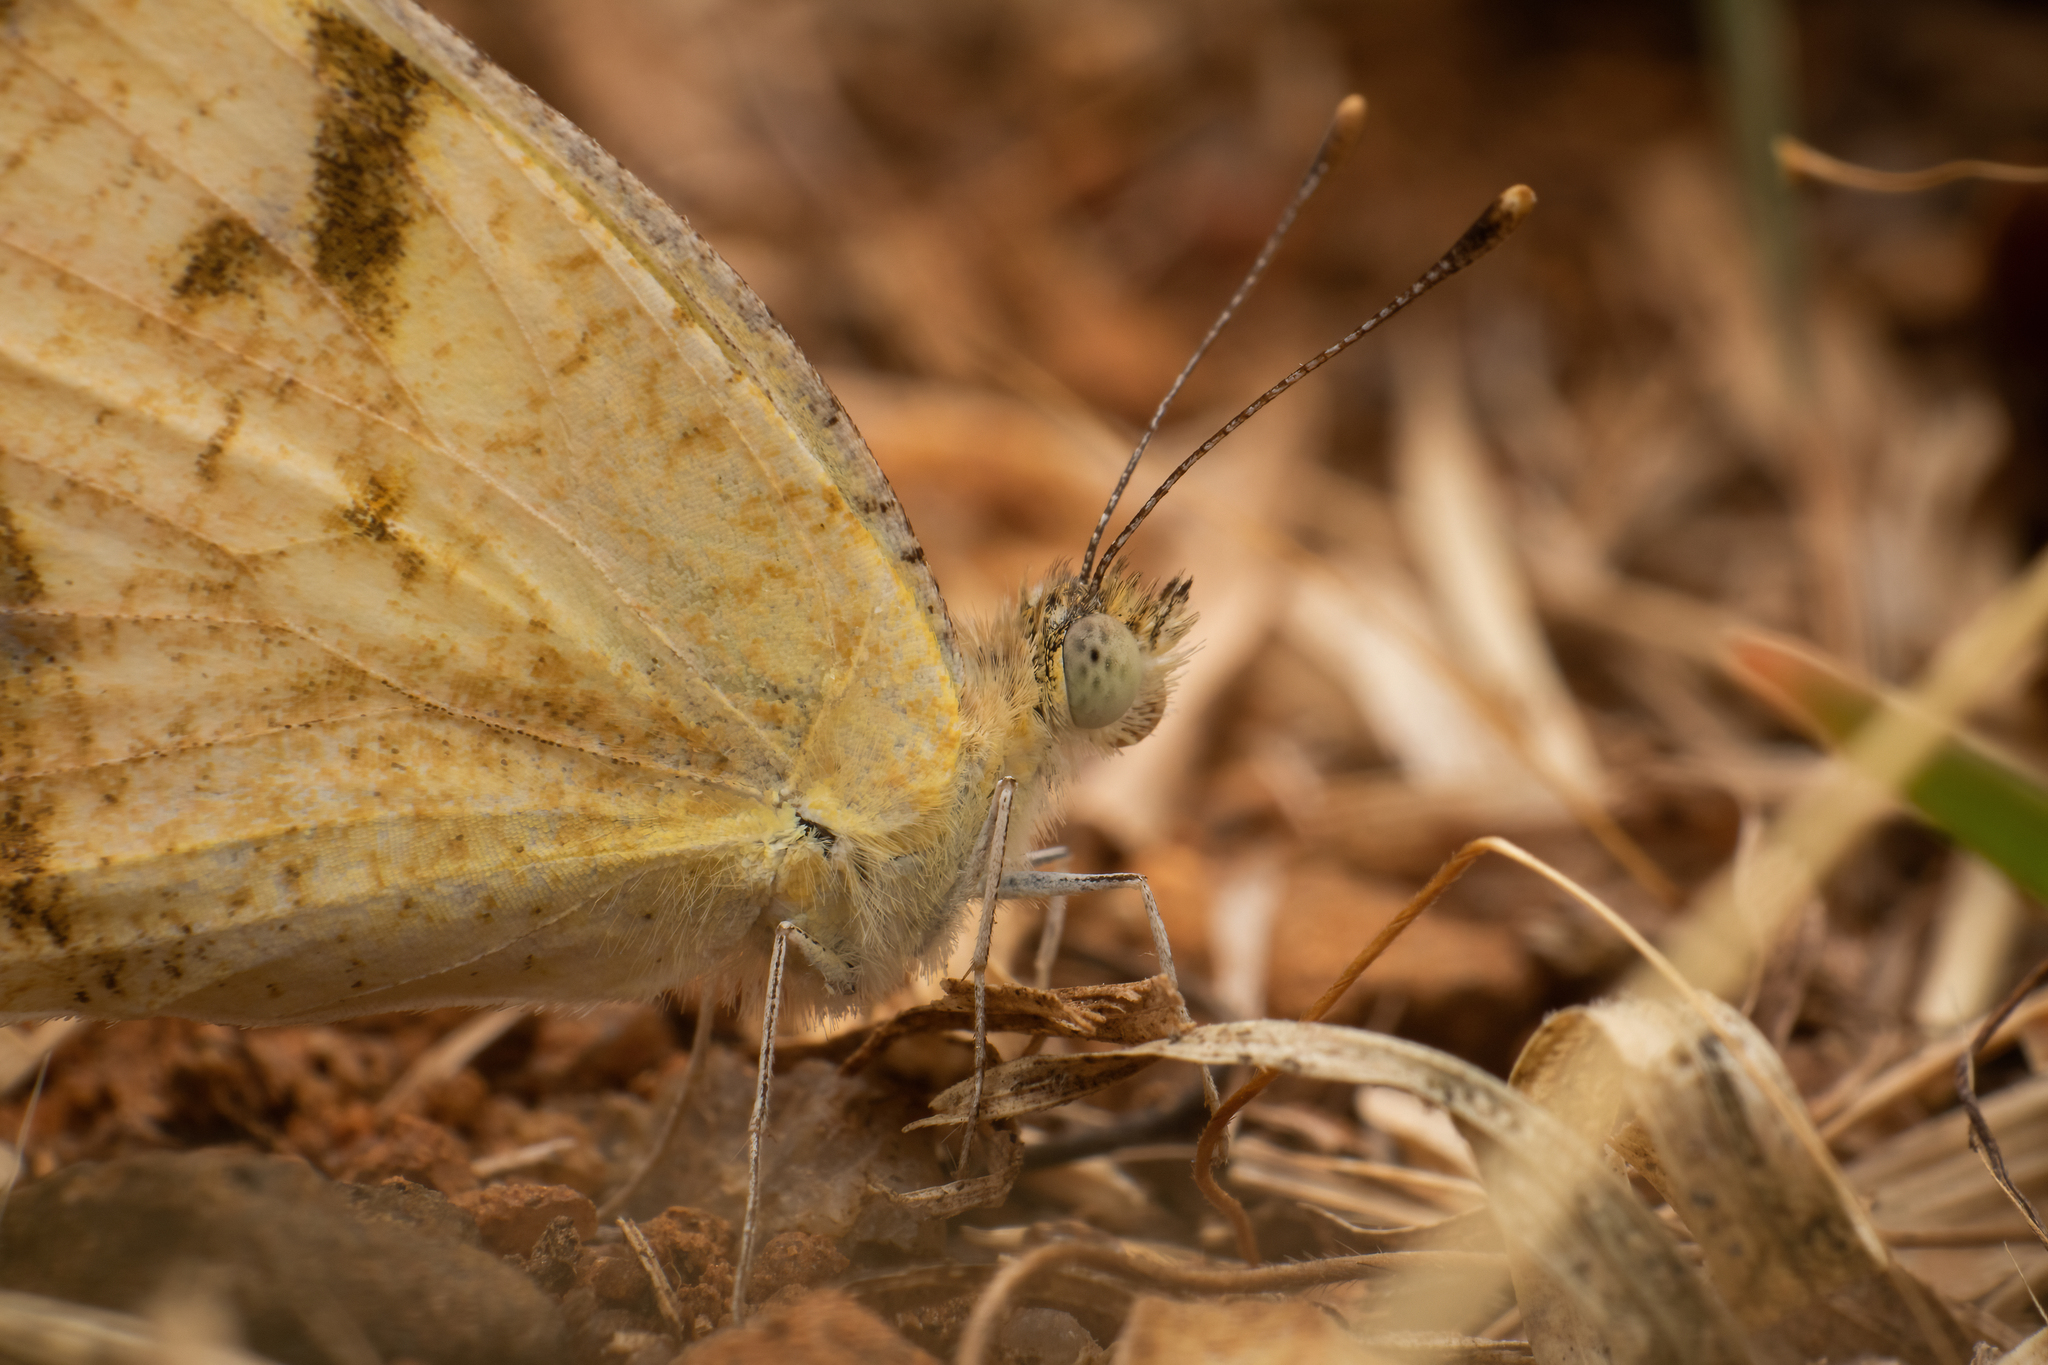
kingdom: Animalia
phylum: Arthropoda
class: Insecta
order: Lepidoptera
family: Pieridae
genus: Colotis
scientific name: Colotis aurora
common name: Plain orange-tip
